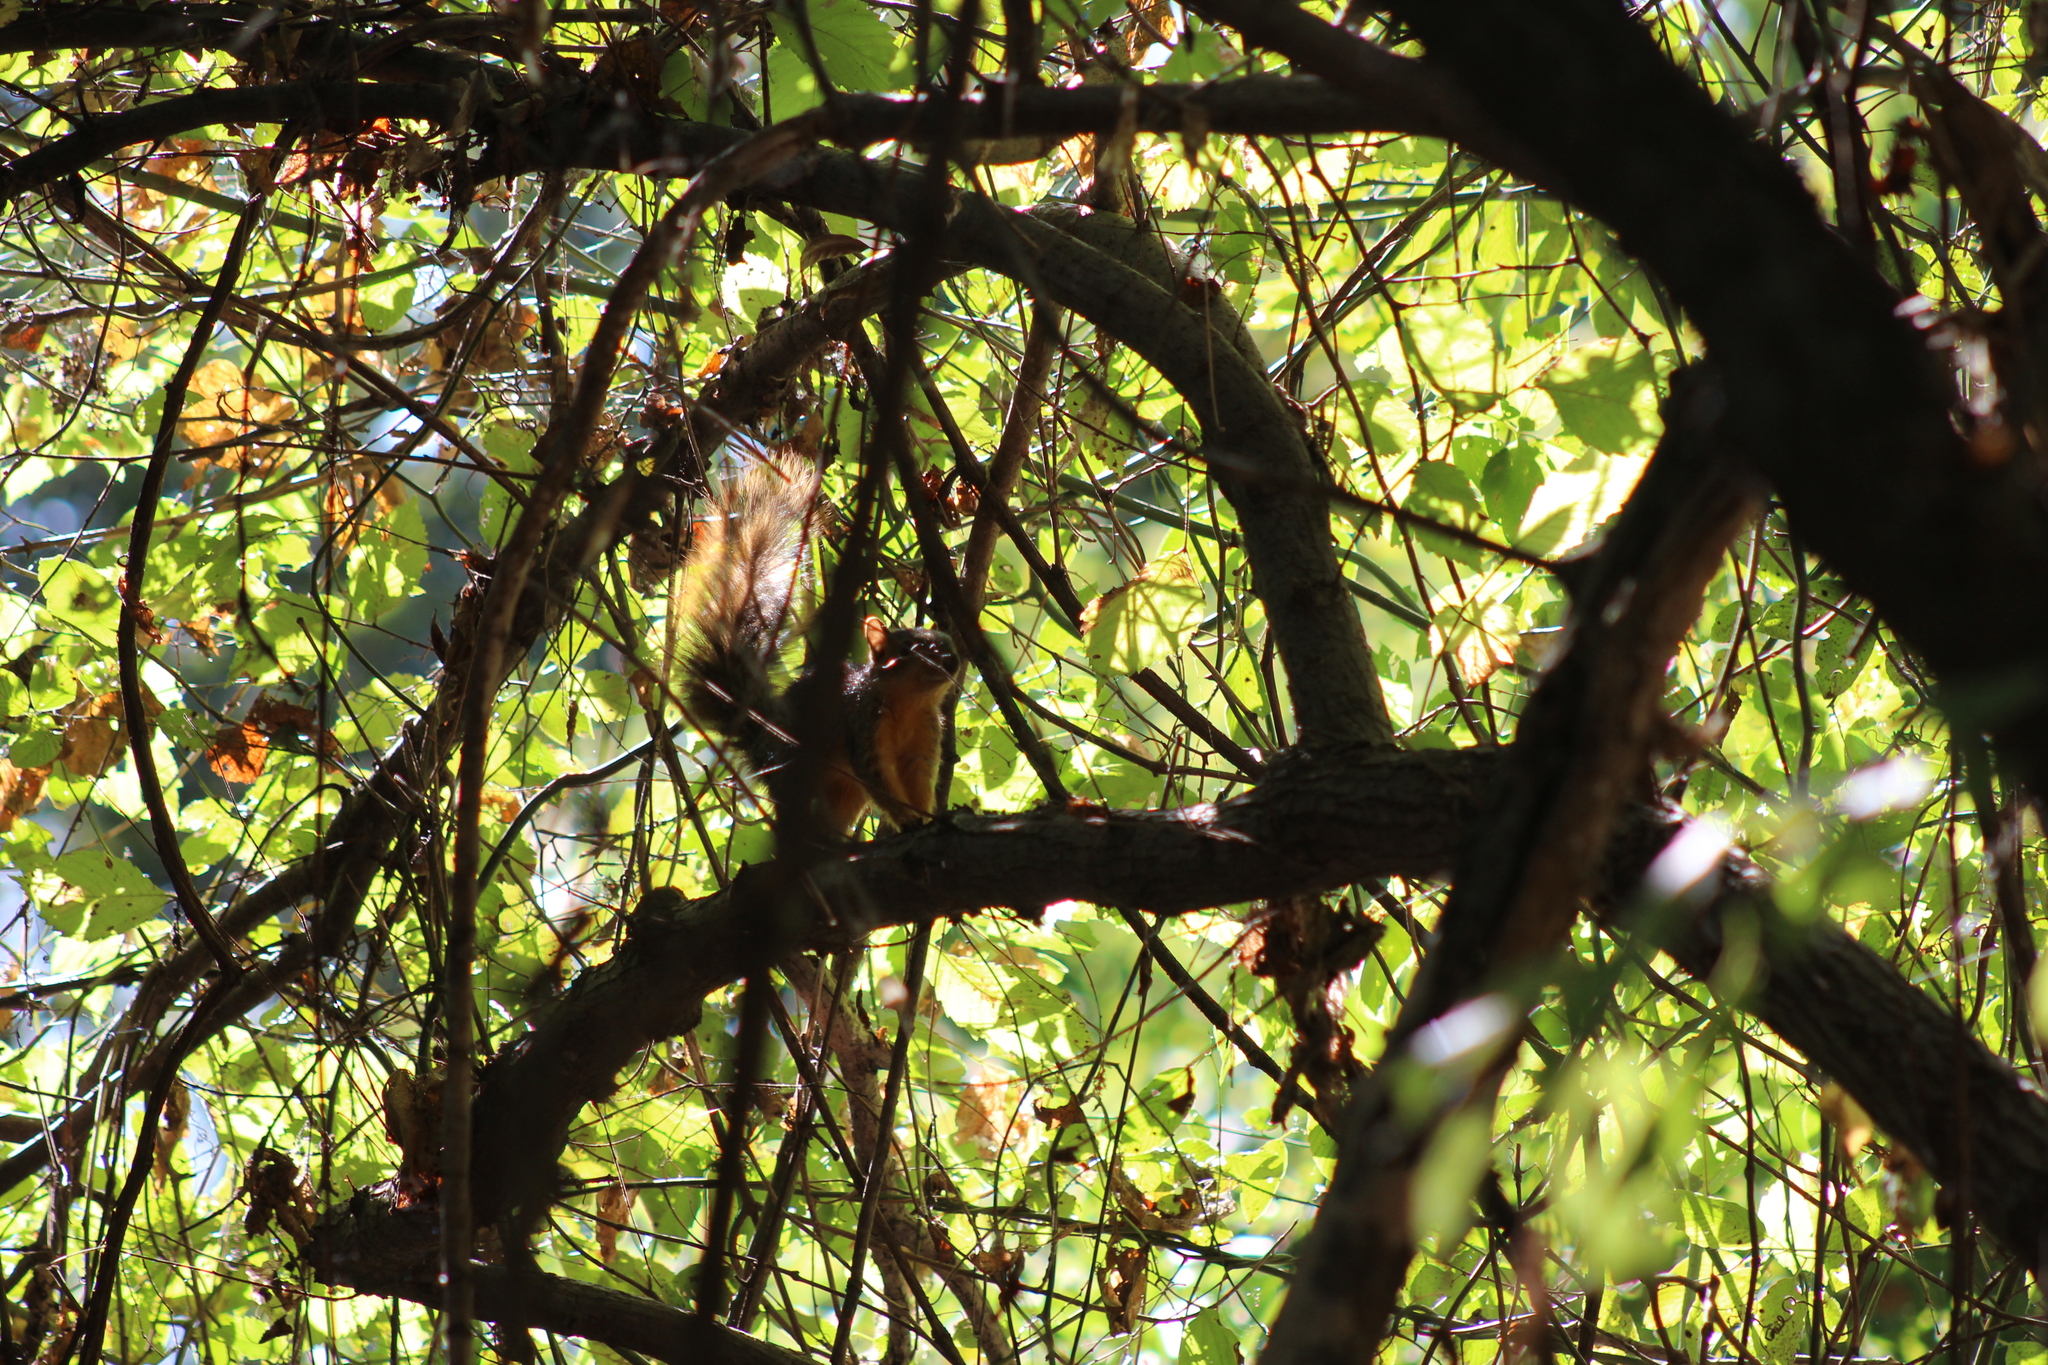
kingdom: Animalia
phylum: Chordata
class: Mammalia
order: Rodentia
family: Sciuridae
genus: Sciurus
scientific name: Sciurus niger
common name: Fox squirrel
